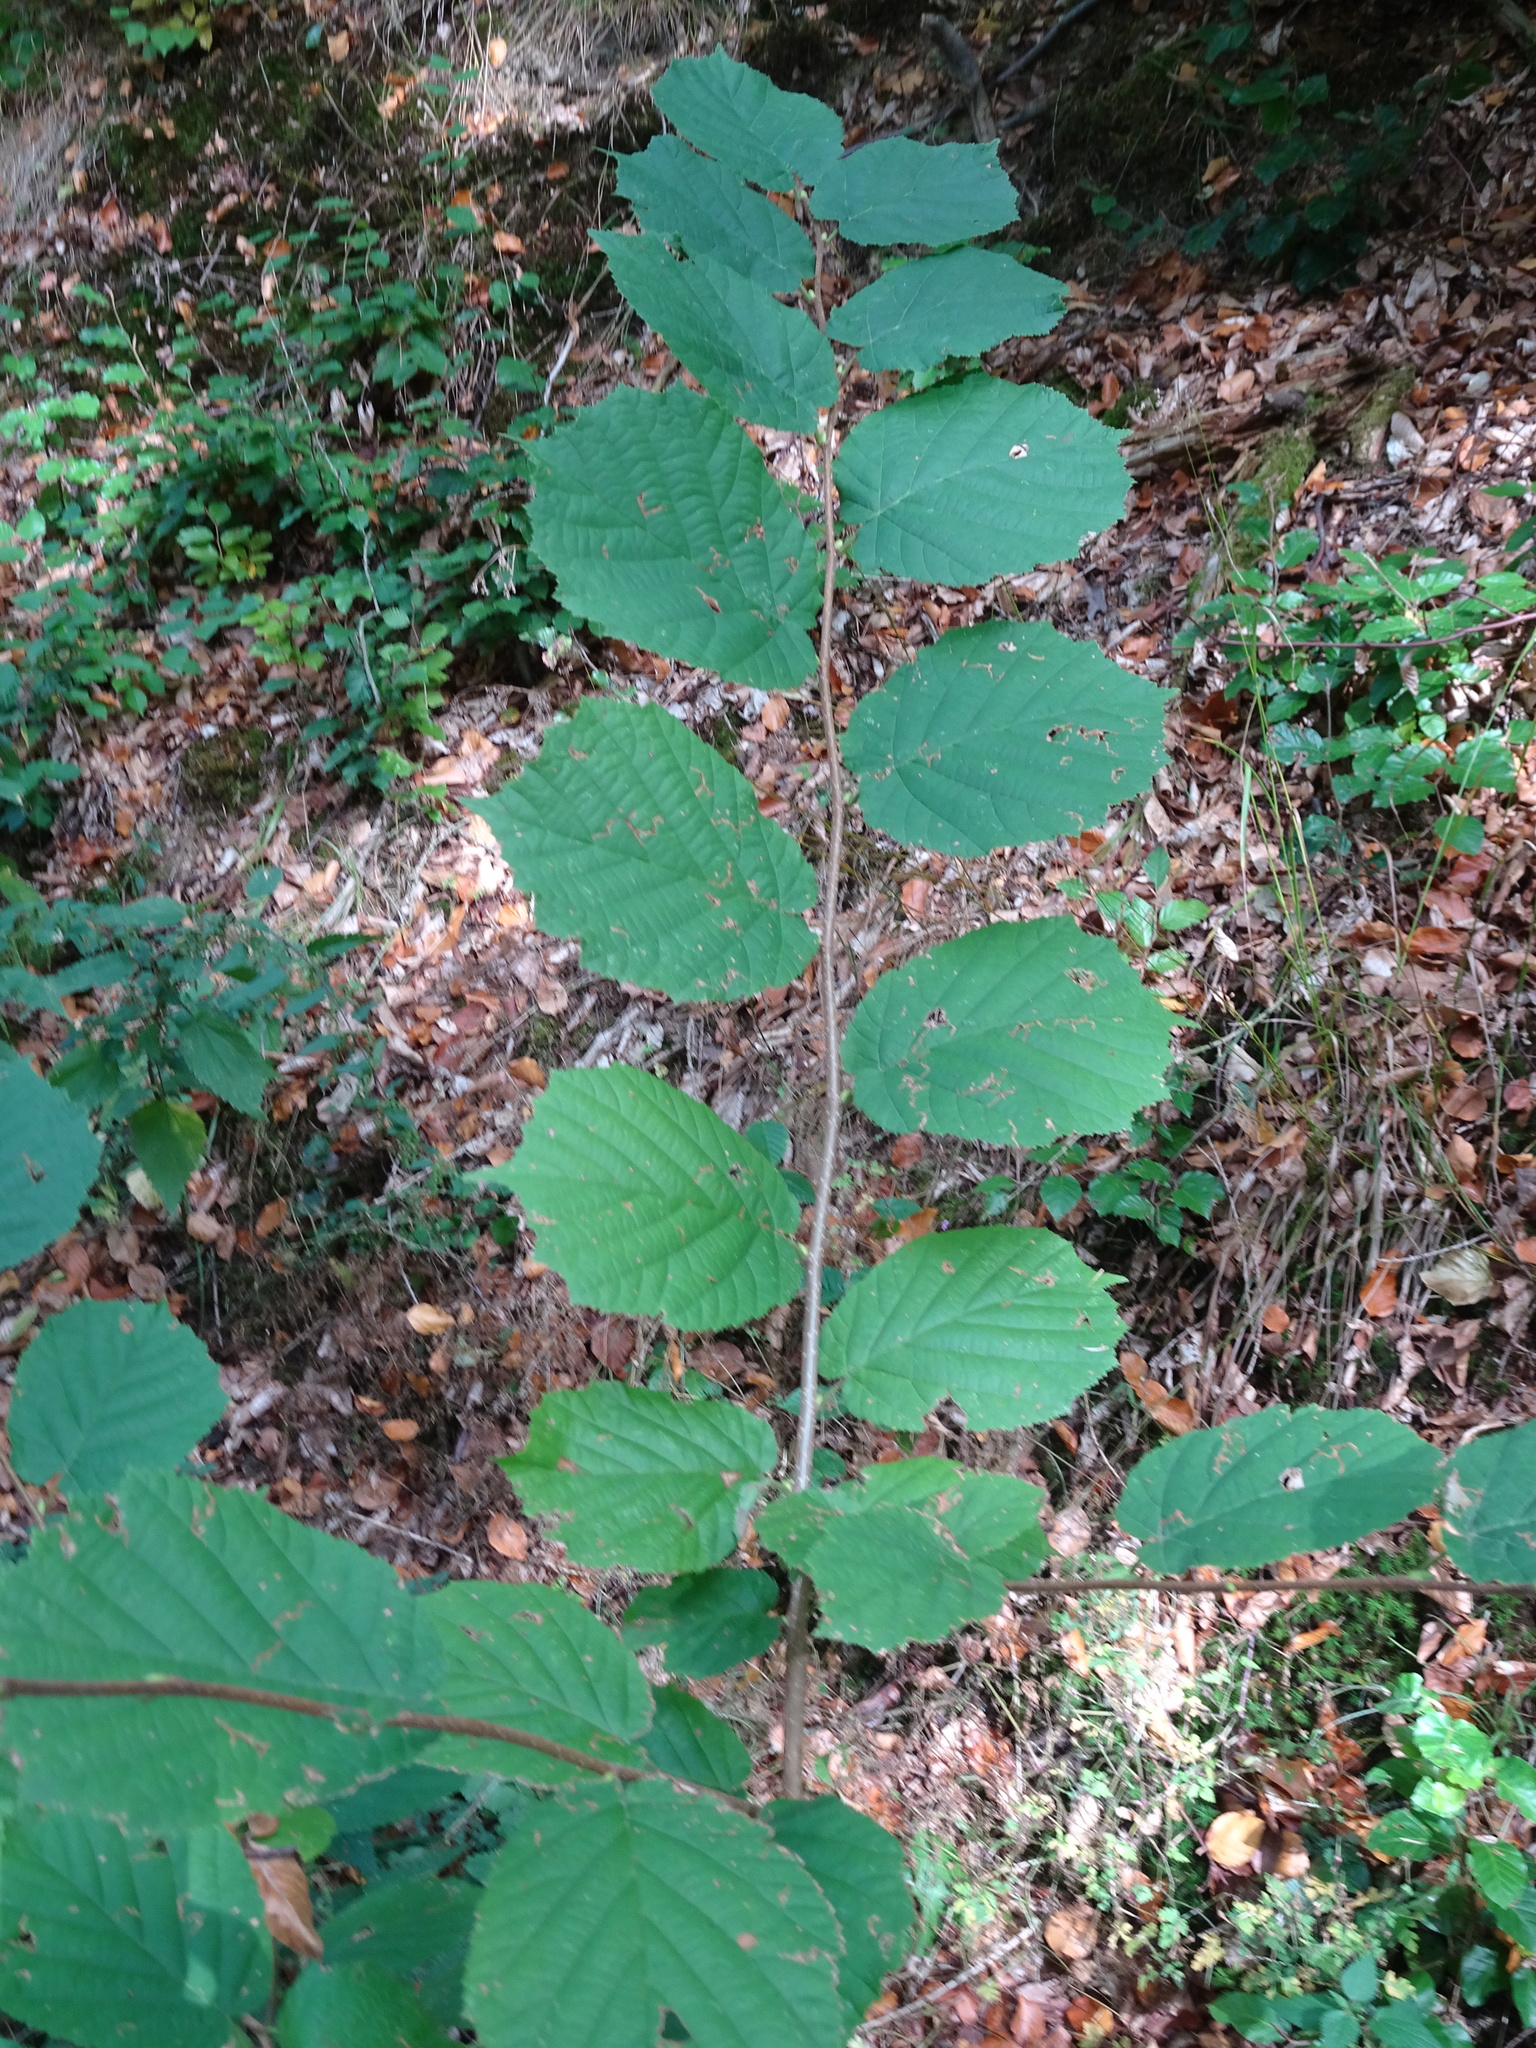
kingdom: Plantae
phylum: Tracheophyta
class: Magnoliopsida
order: Fagales
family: Betulaceae
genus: Corylus
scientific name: Corylus avellana
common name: European hazel
